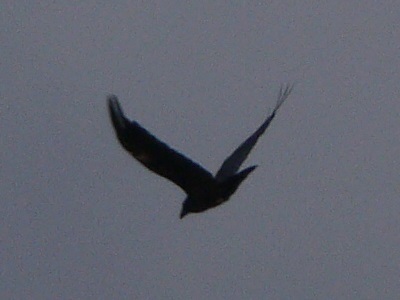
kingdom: Animalia
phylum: Chordata
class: Aves
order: Passeriformes
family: Corvidae
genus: Corvus
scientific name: Corvus corax
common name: Common raven
